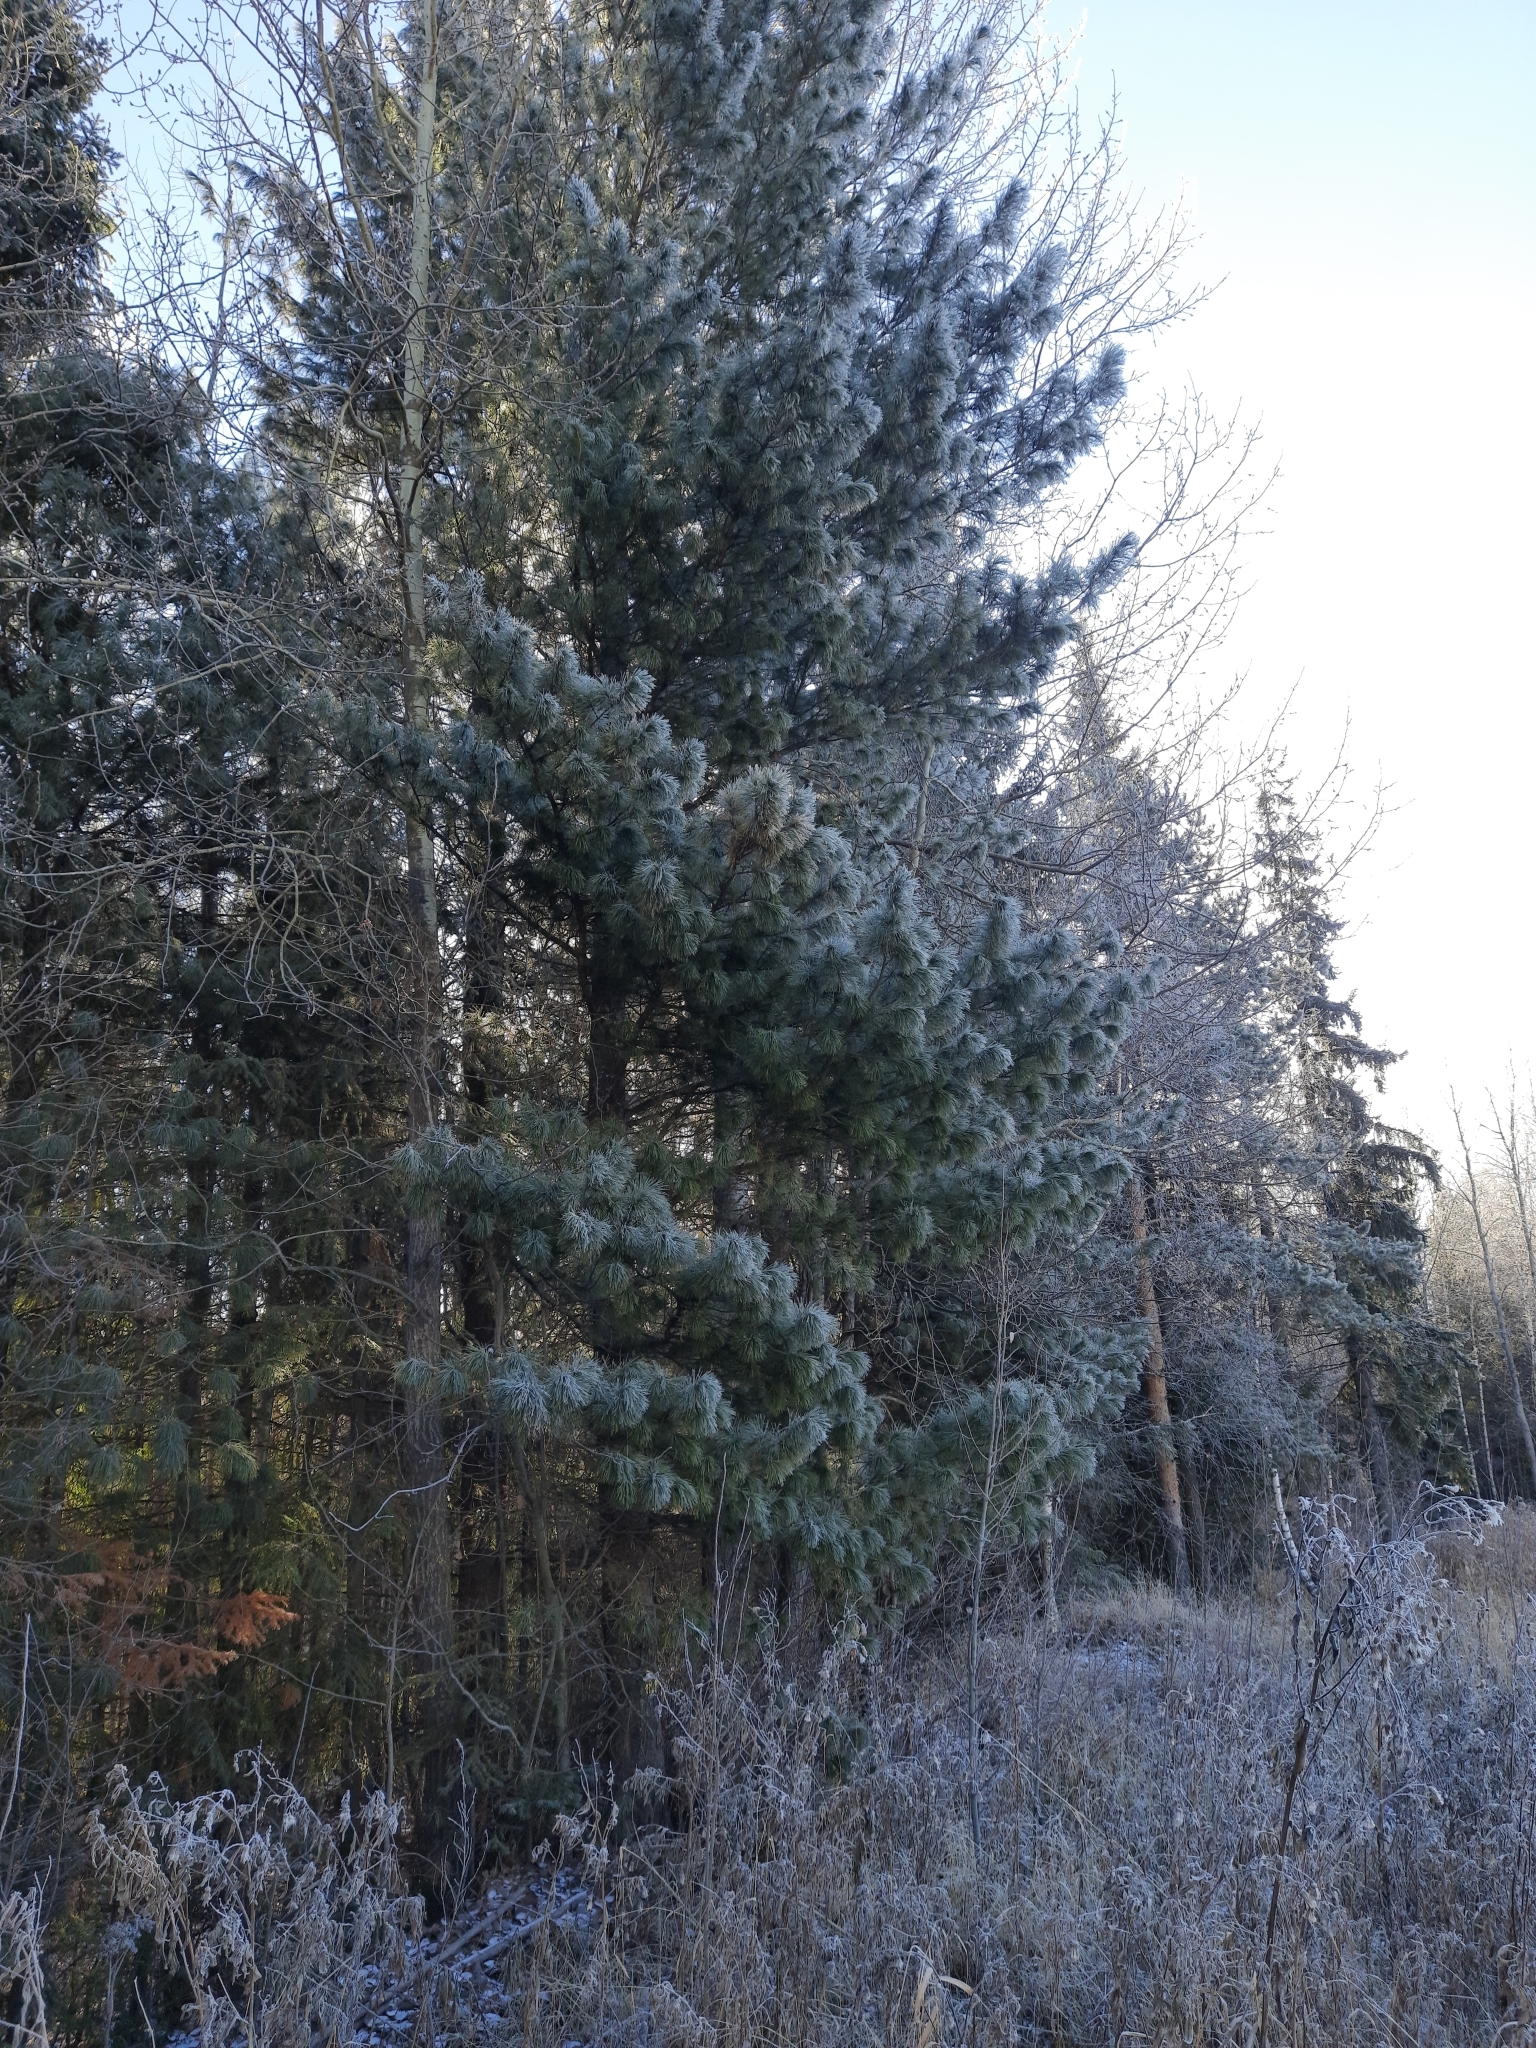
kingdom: Plantae
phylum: Tracheophyta
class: Pinopsida
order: Pinales
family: Pinaceae
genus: Pinus
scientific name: Pinus sibirica
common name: Siberian pine
